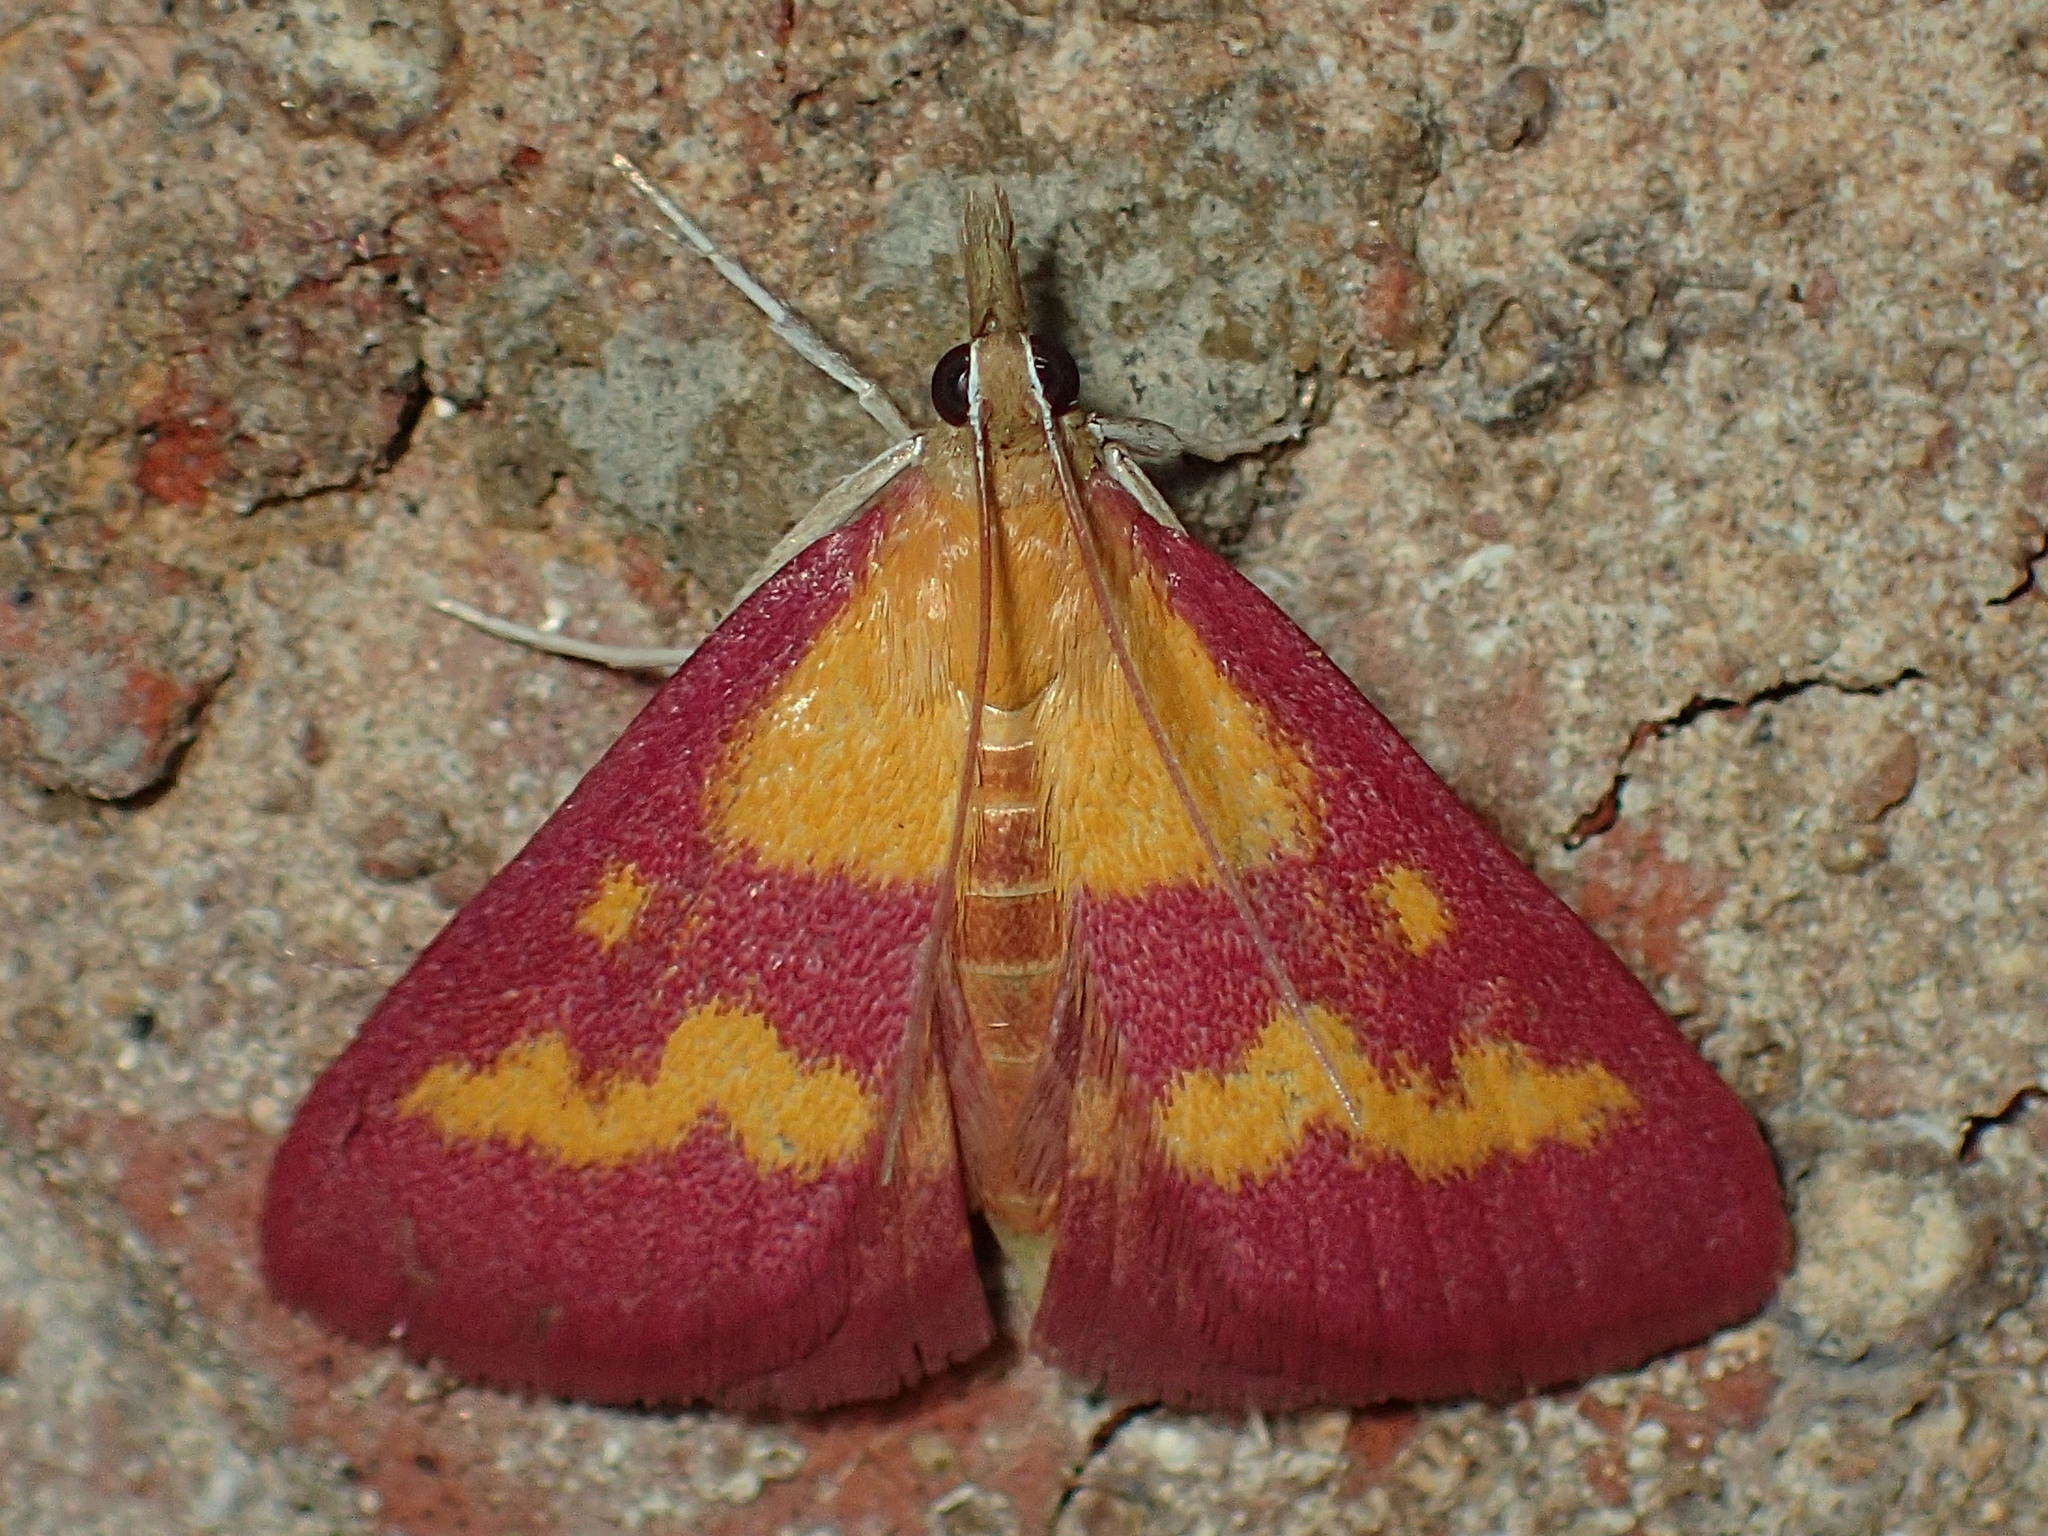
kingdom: Animalia
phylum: Arthropoda
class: Insecta
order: Lepidoptera
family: Crambidae
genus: Pyrausta
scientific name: Pyrausta laticlavia
